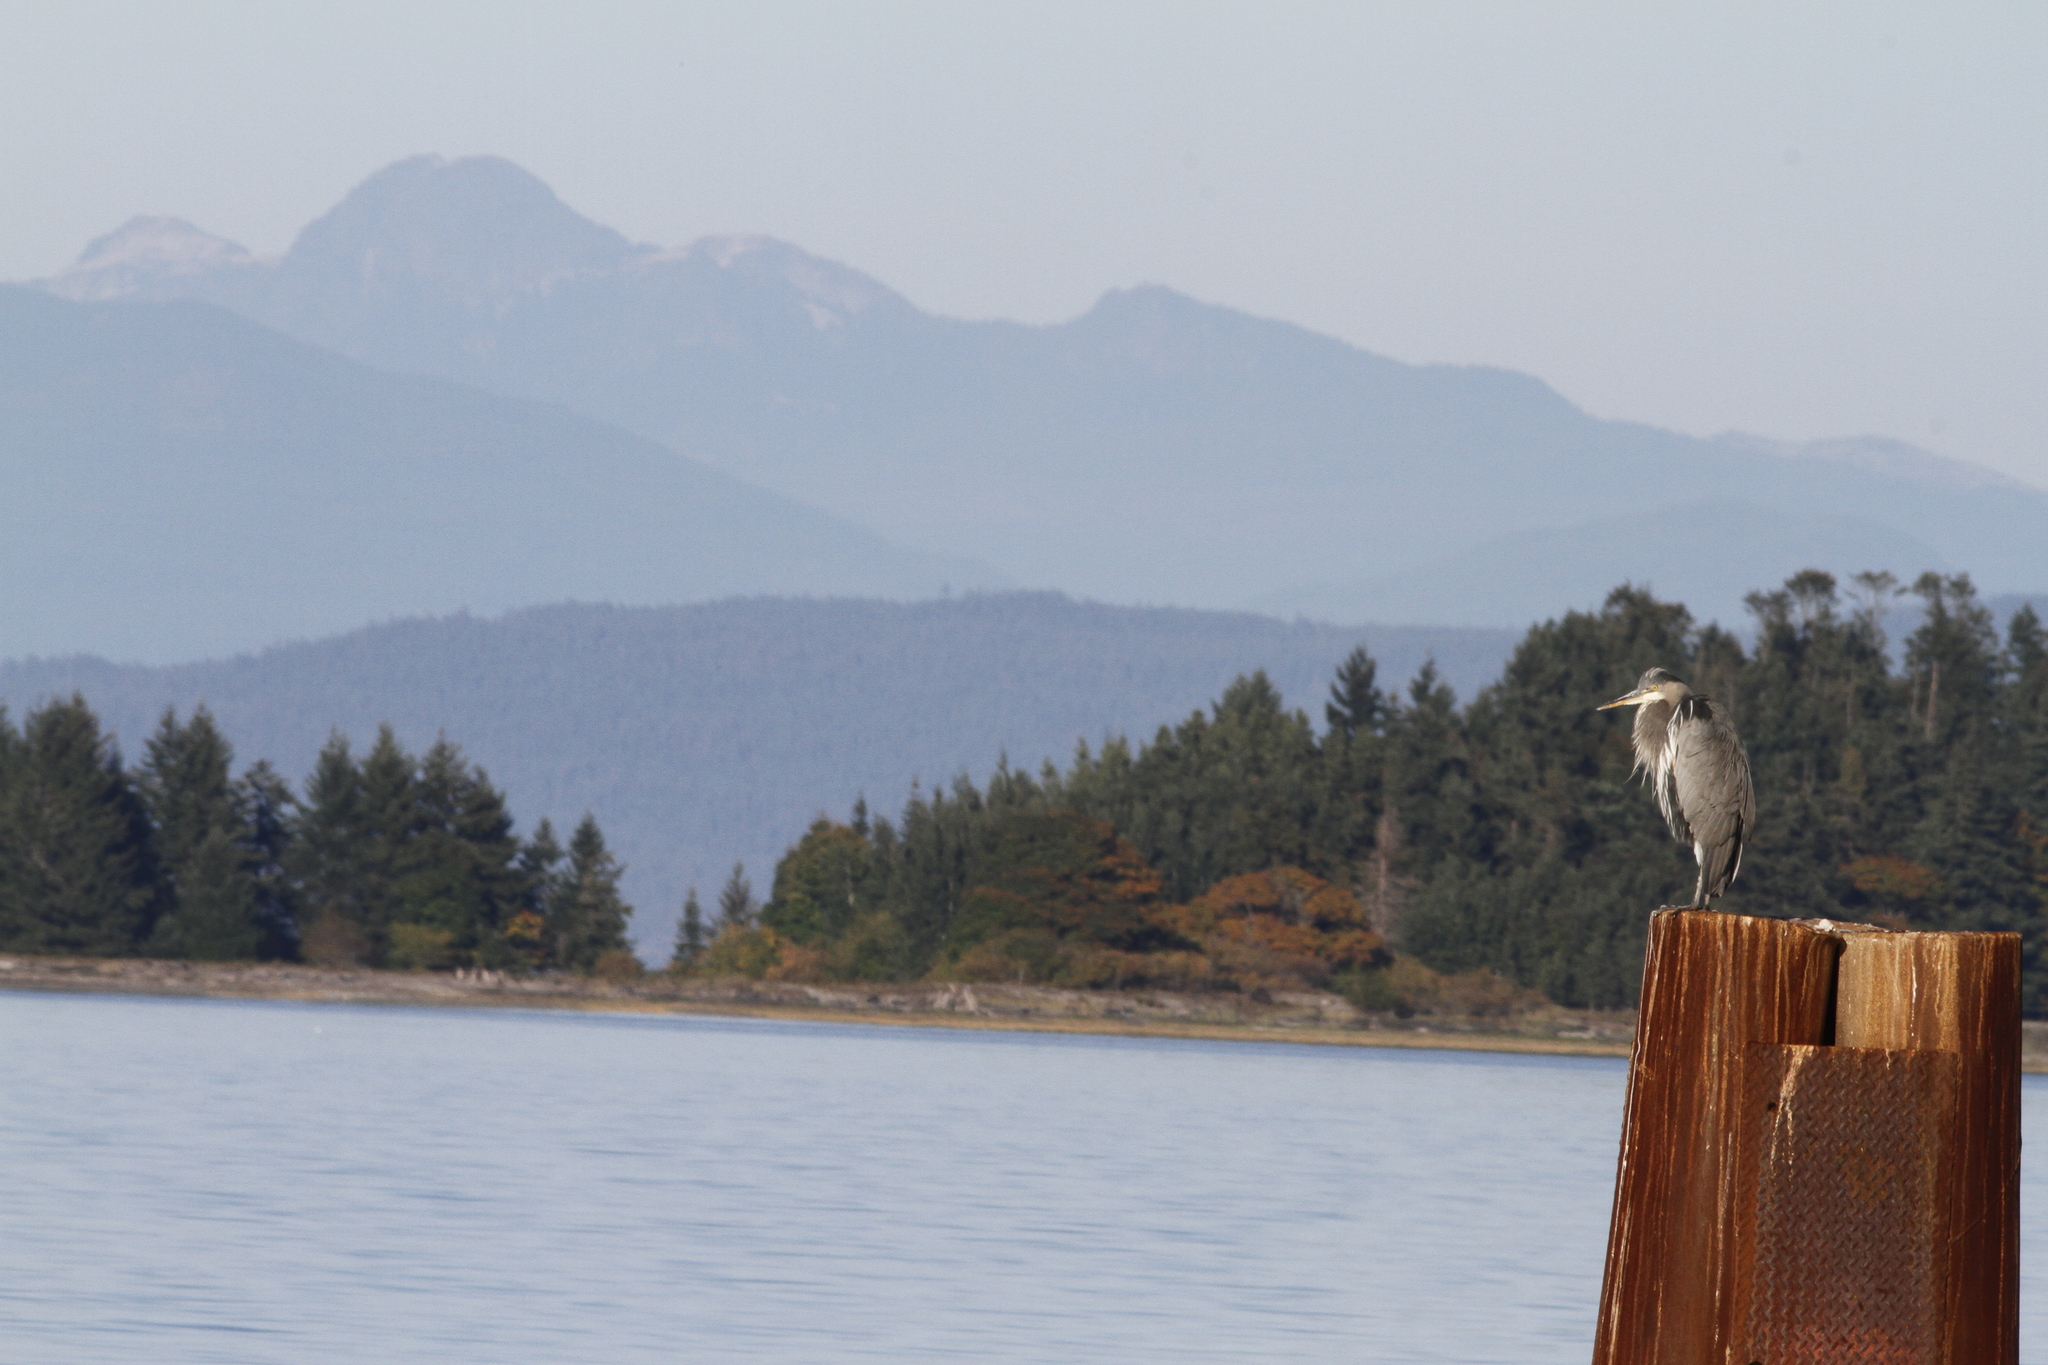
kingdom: Animalia
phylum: Chordata
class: Aves
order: Pelecaniformes
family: Ardeidae
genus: Ardea
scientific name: Ardea herodias
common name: Great blue heron
